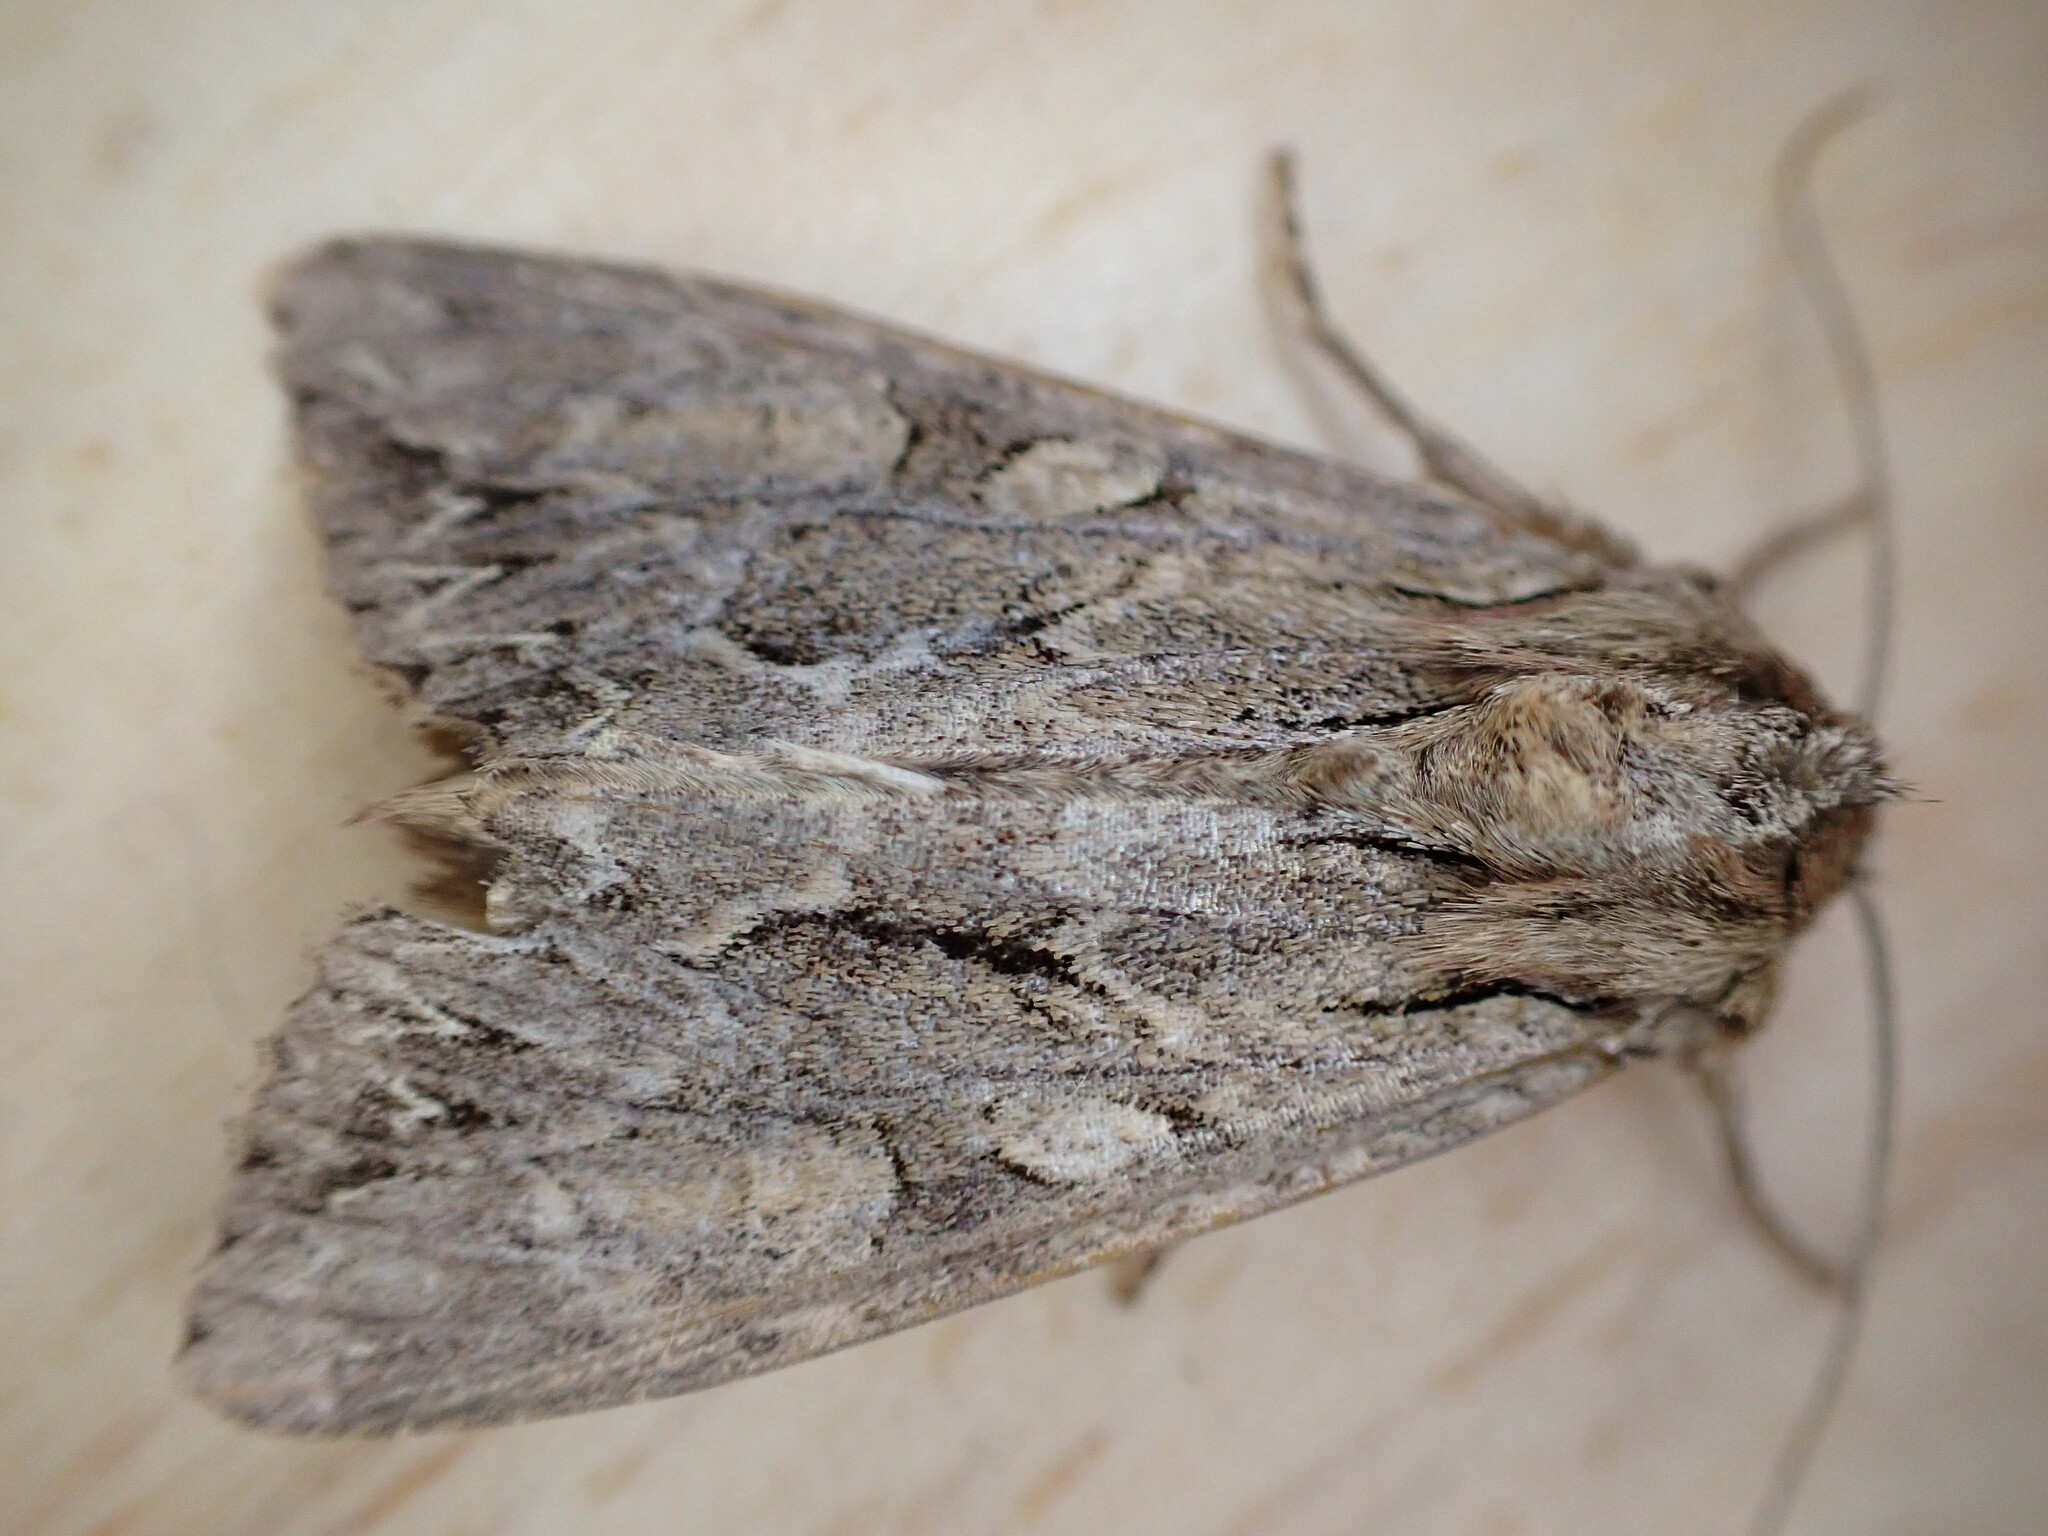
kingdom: Animalia
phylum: Arthropoda
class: Insecta
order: Lepidoptera
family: Noctuidae
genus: Apamea
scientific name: Apamea monoglypha
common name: Dark arches
